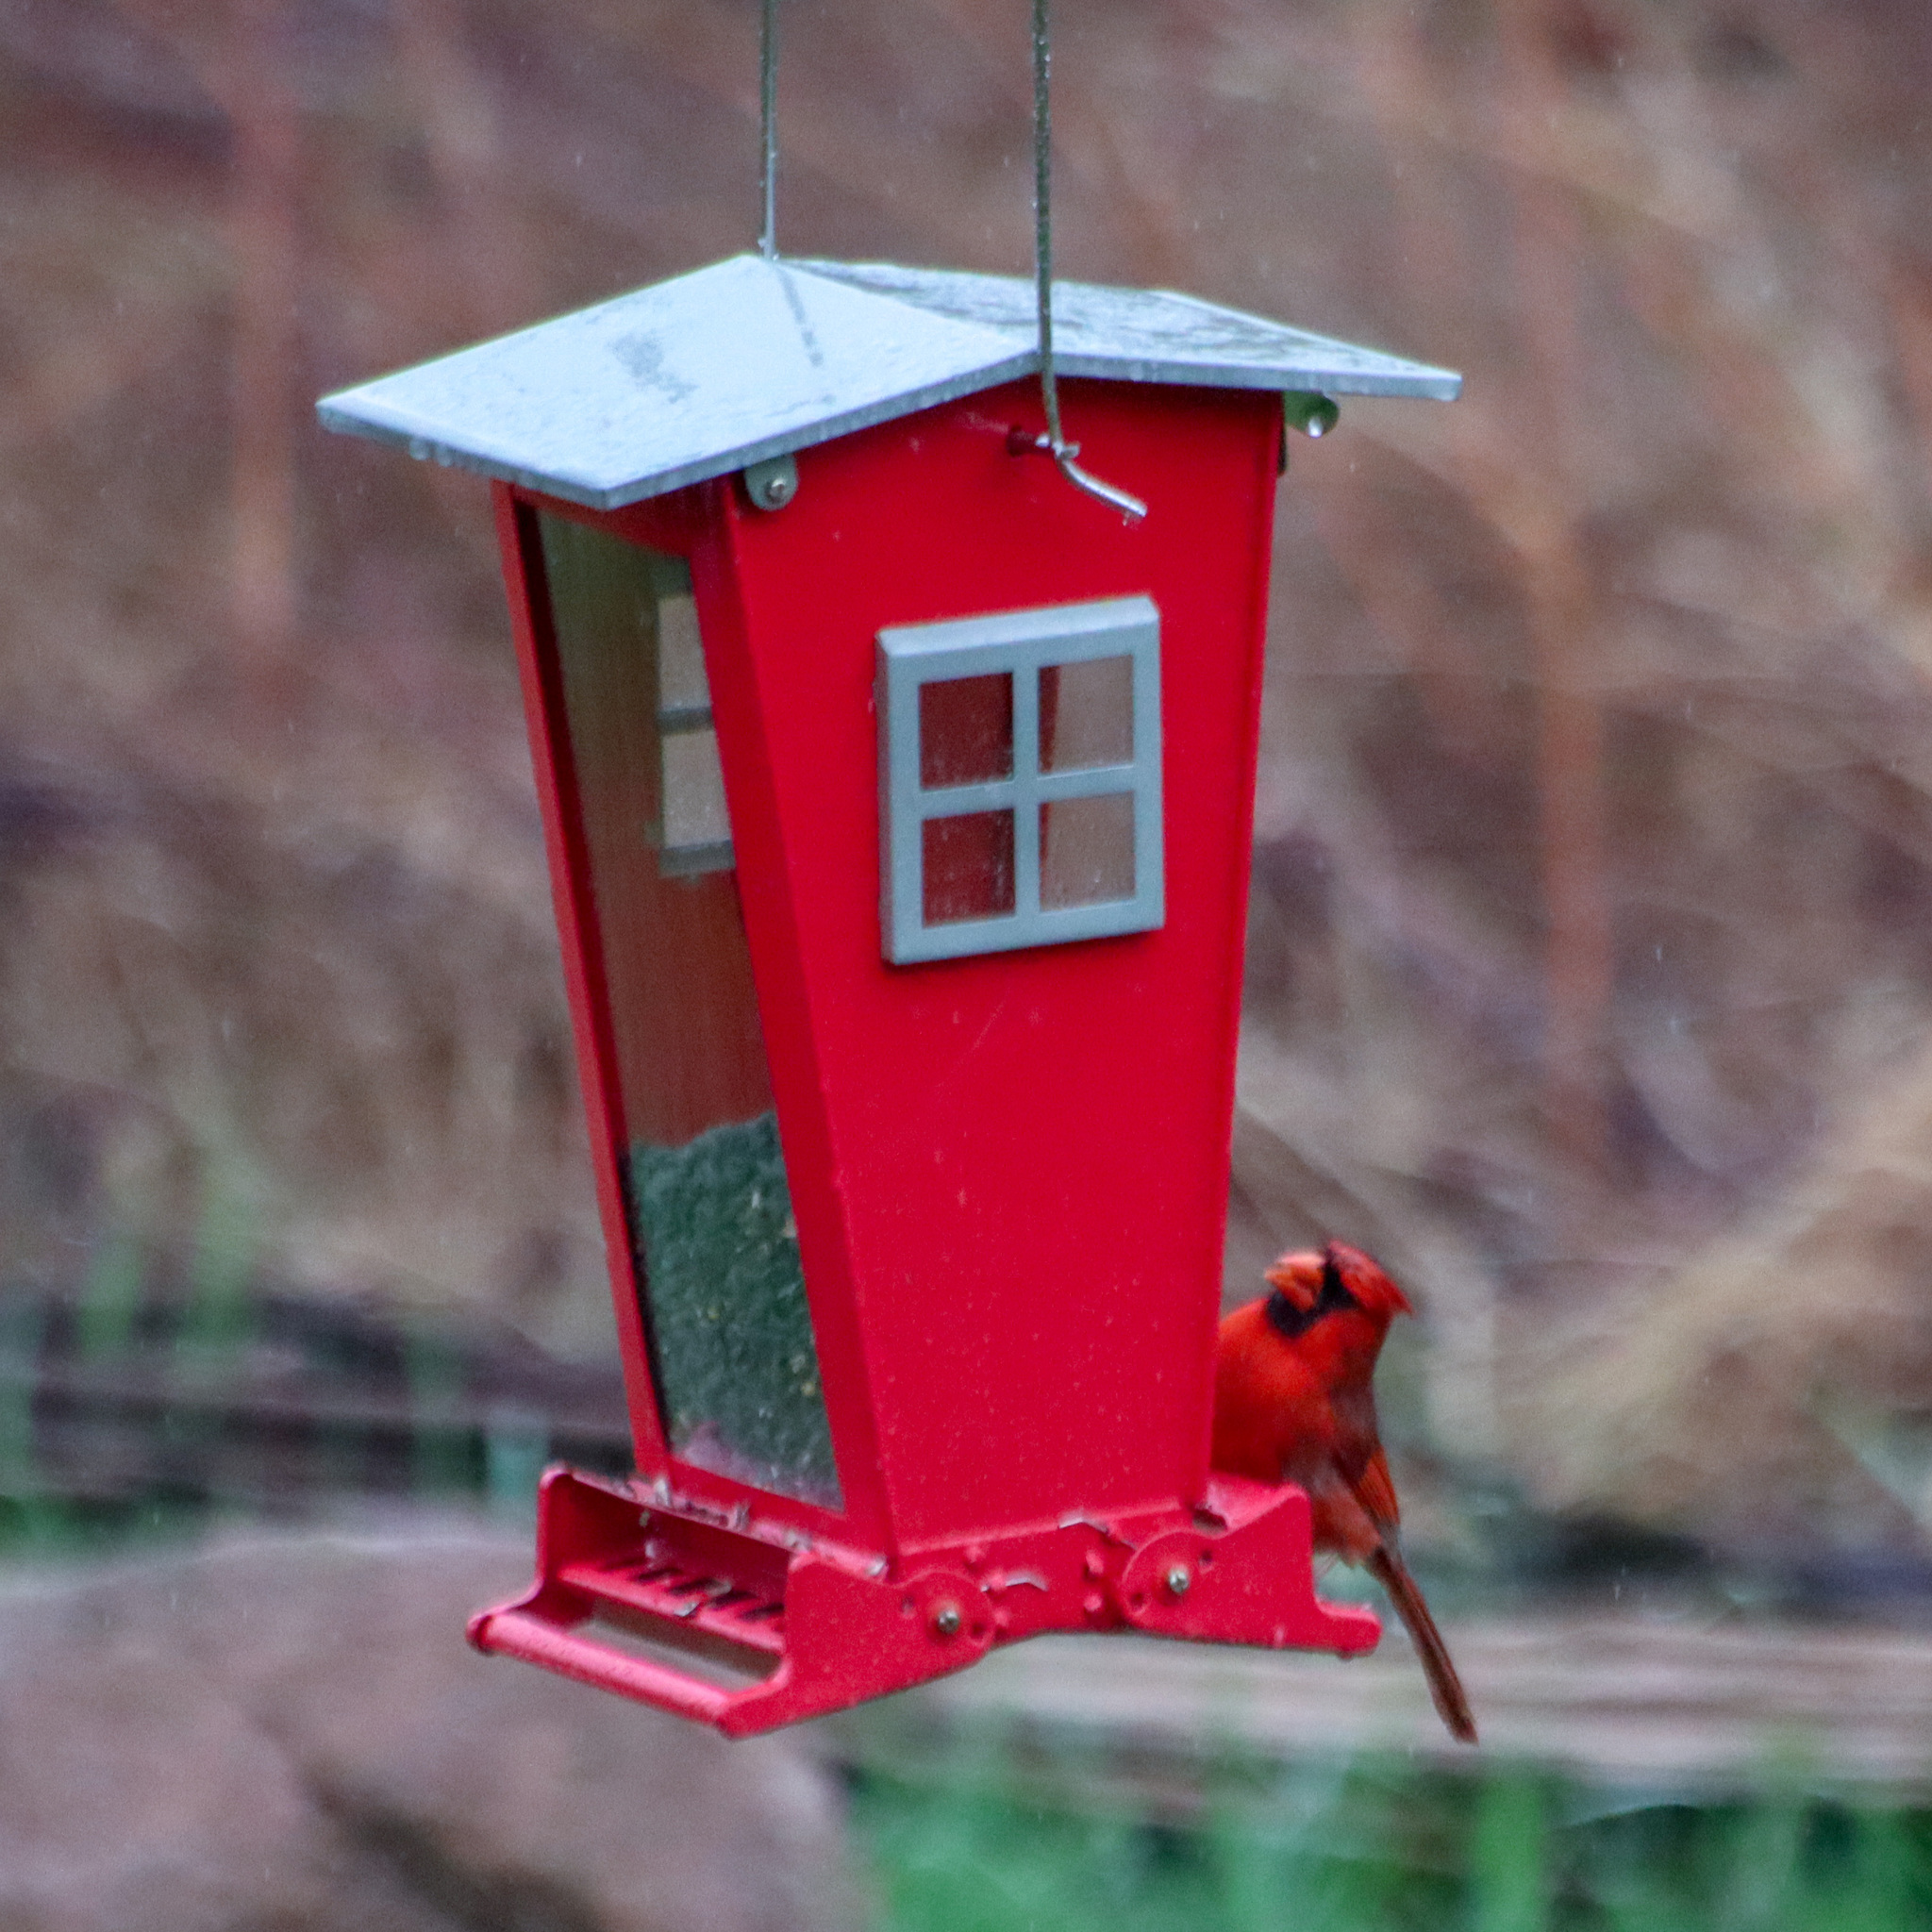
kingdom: Animalia
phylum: Chordata
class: Aves
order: Passeriformes
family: Cardinalidae
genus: Cardinalis
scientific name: Cardinalis cardinalis
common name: Northern cardinal
